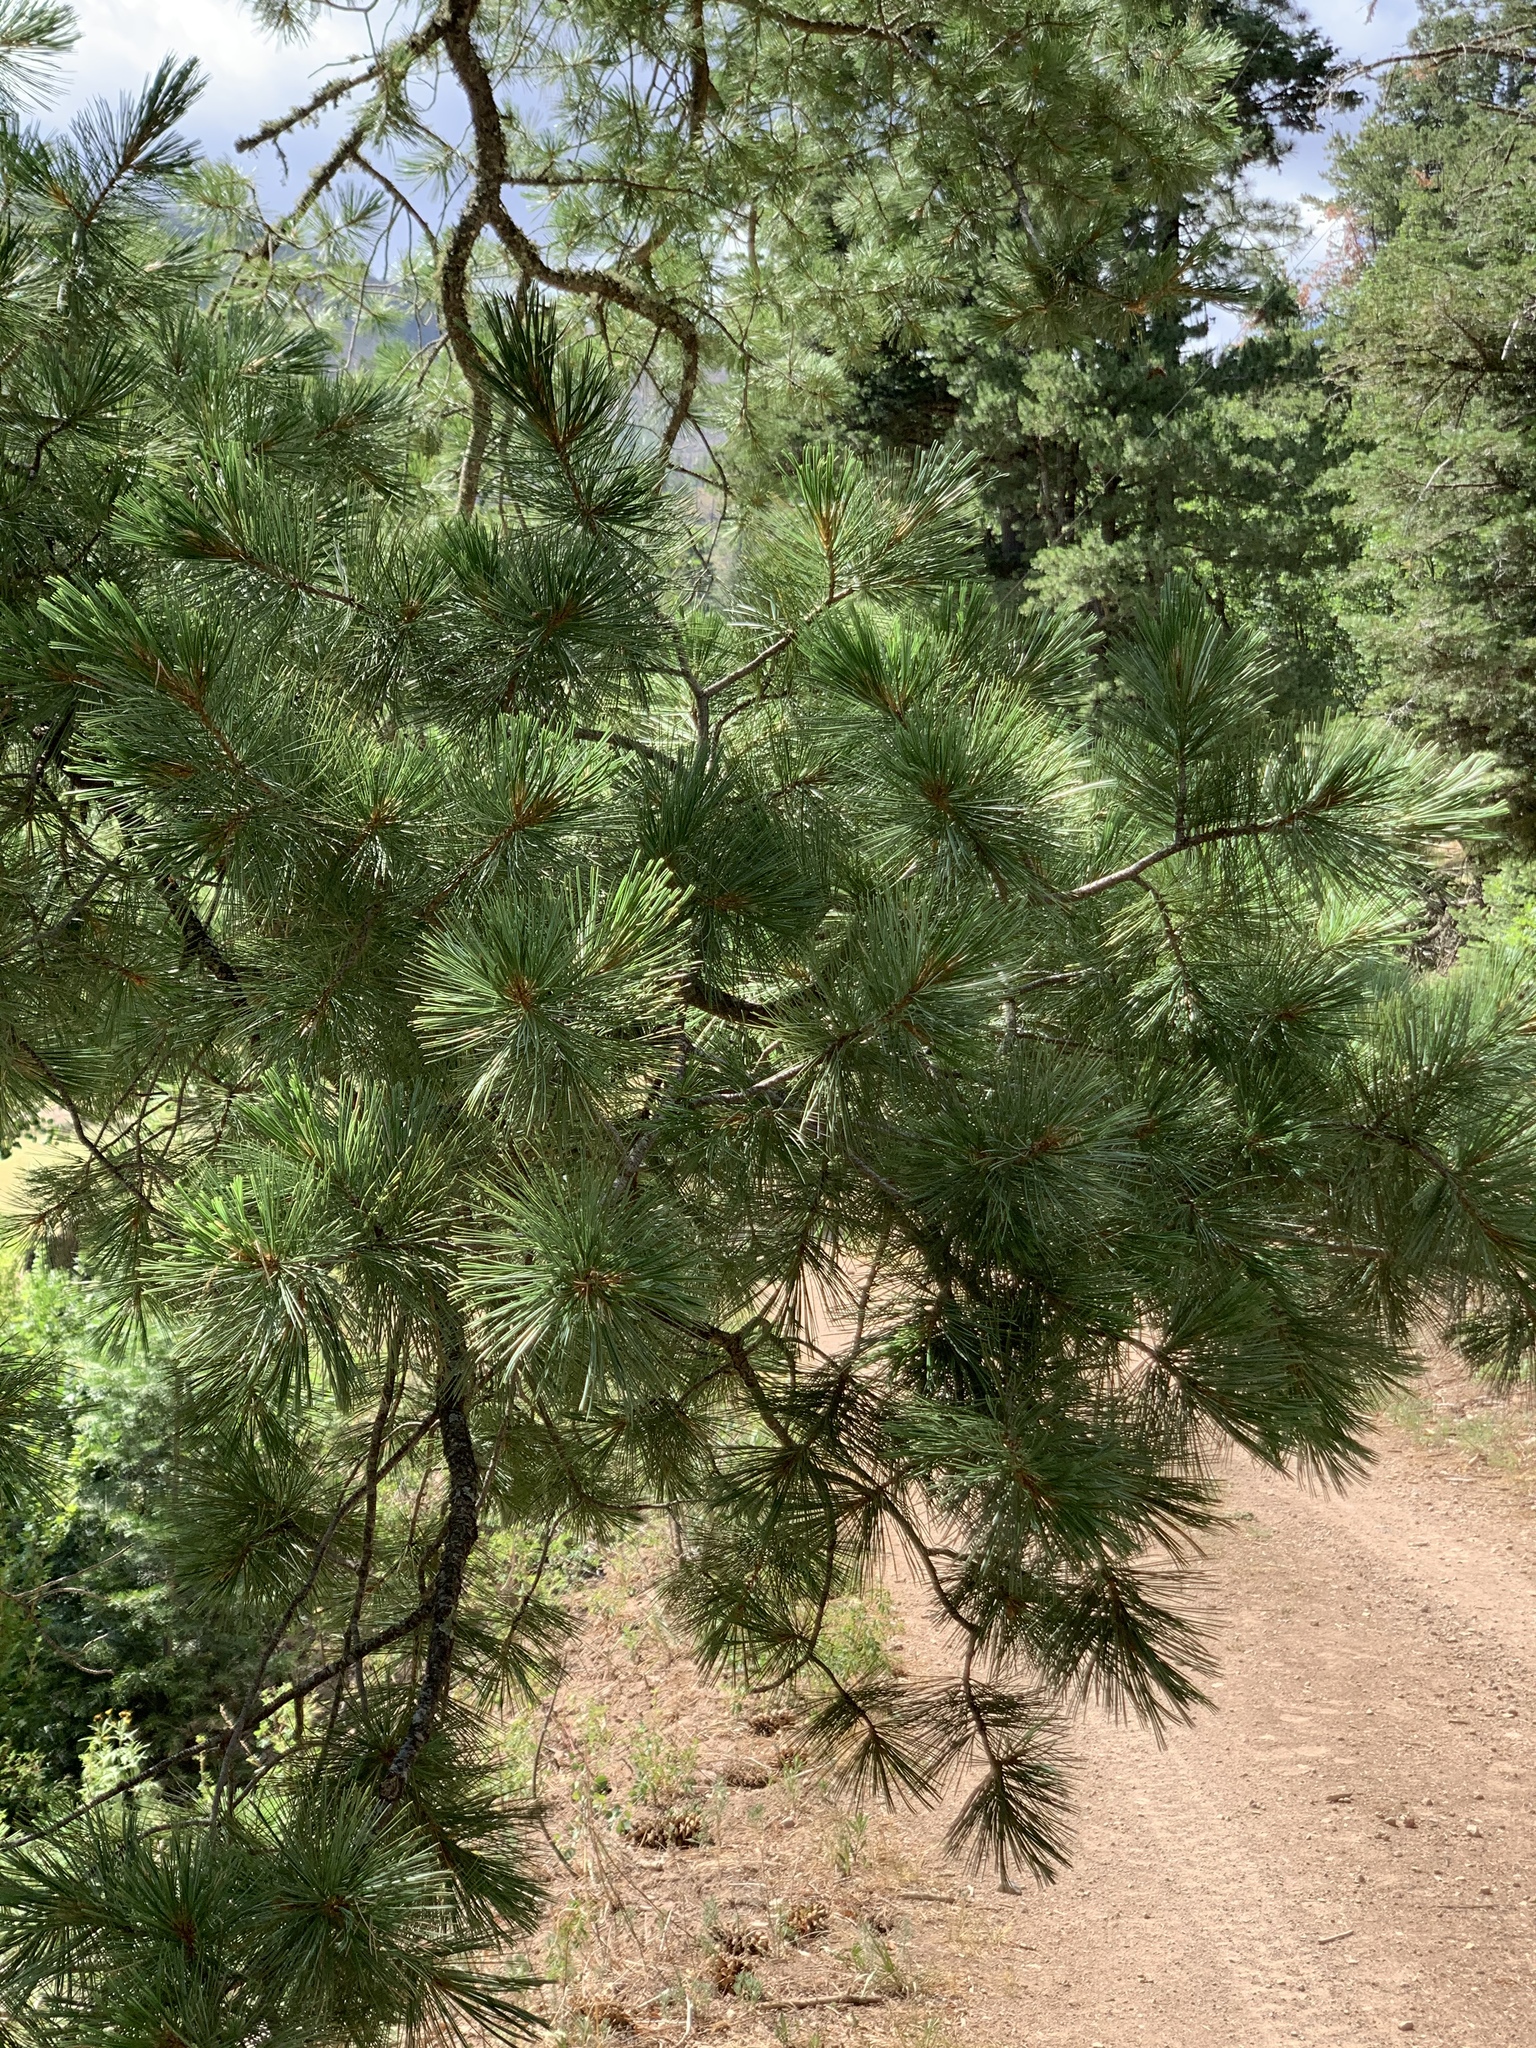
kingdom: Plantae
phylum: Tracheophyta
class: Pinopsida
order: Pinales
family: Pinaceae
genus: Pinus
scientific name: Pinus strobiformis
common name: Southwestern white pine
